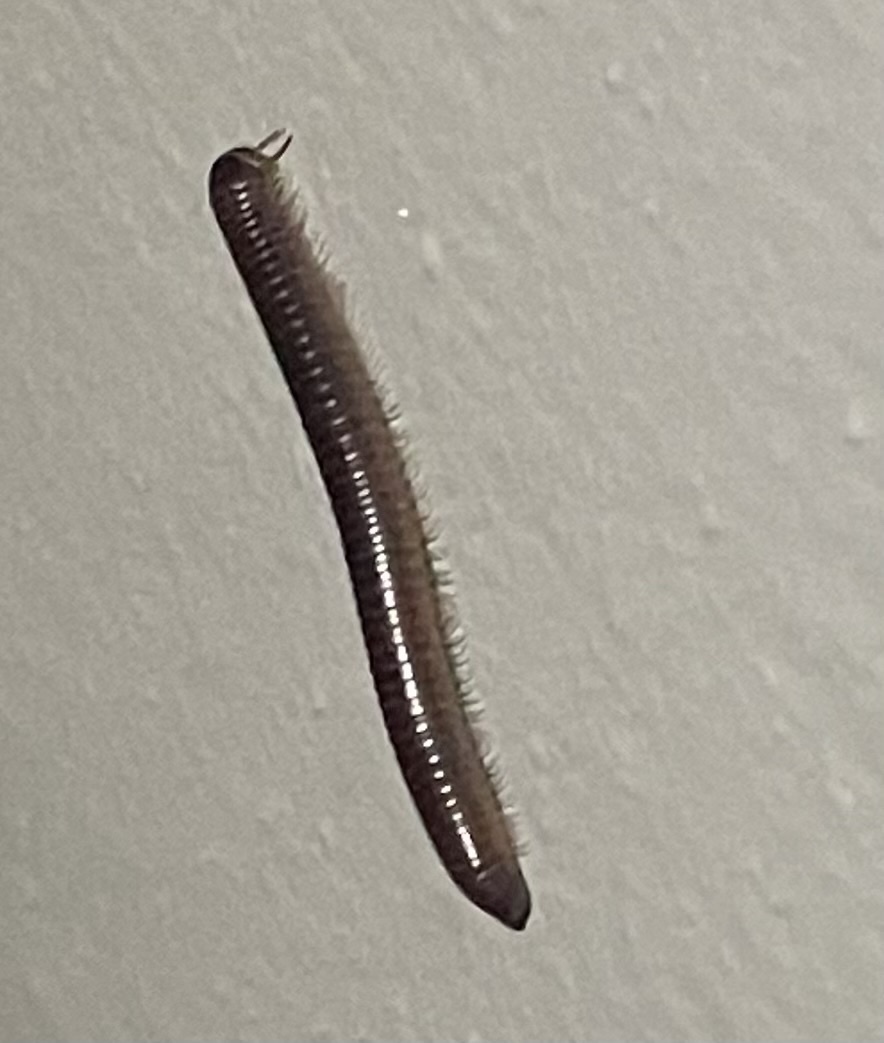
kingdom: Animalia
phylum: Arthropoda
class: Diplopoda
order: Spirobolida
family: Spirobolidae
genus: Chicobolus
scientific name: Chicobolus spinigerus
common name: Florida ivory millipede
